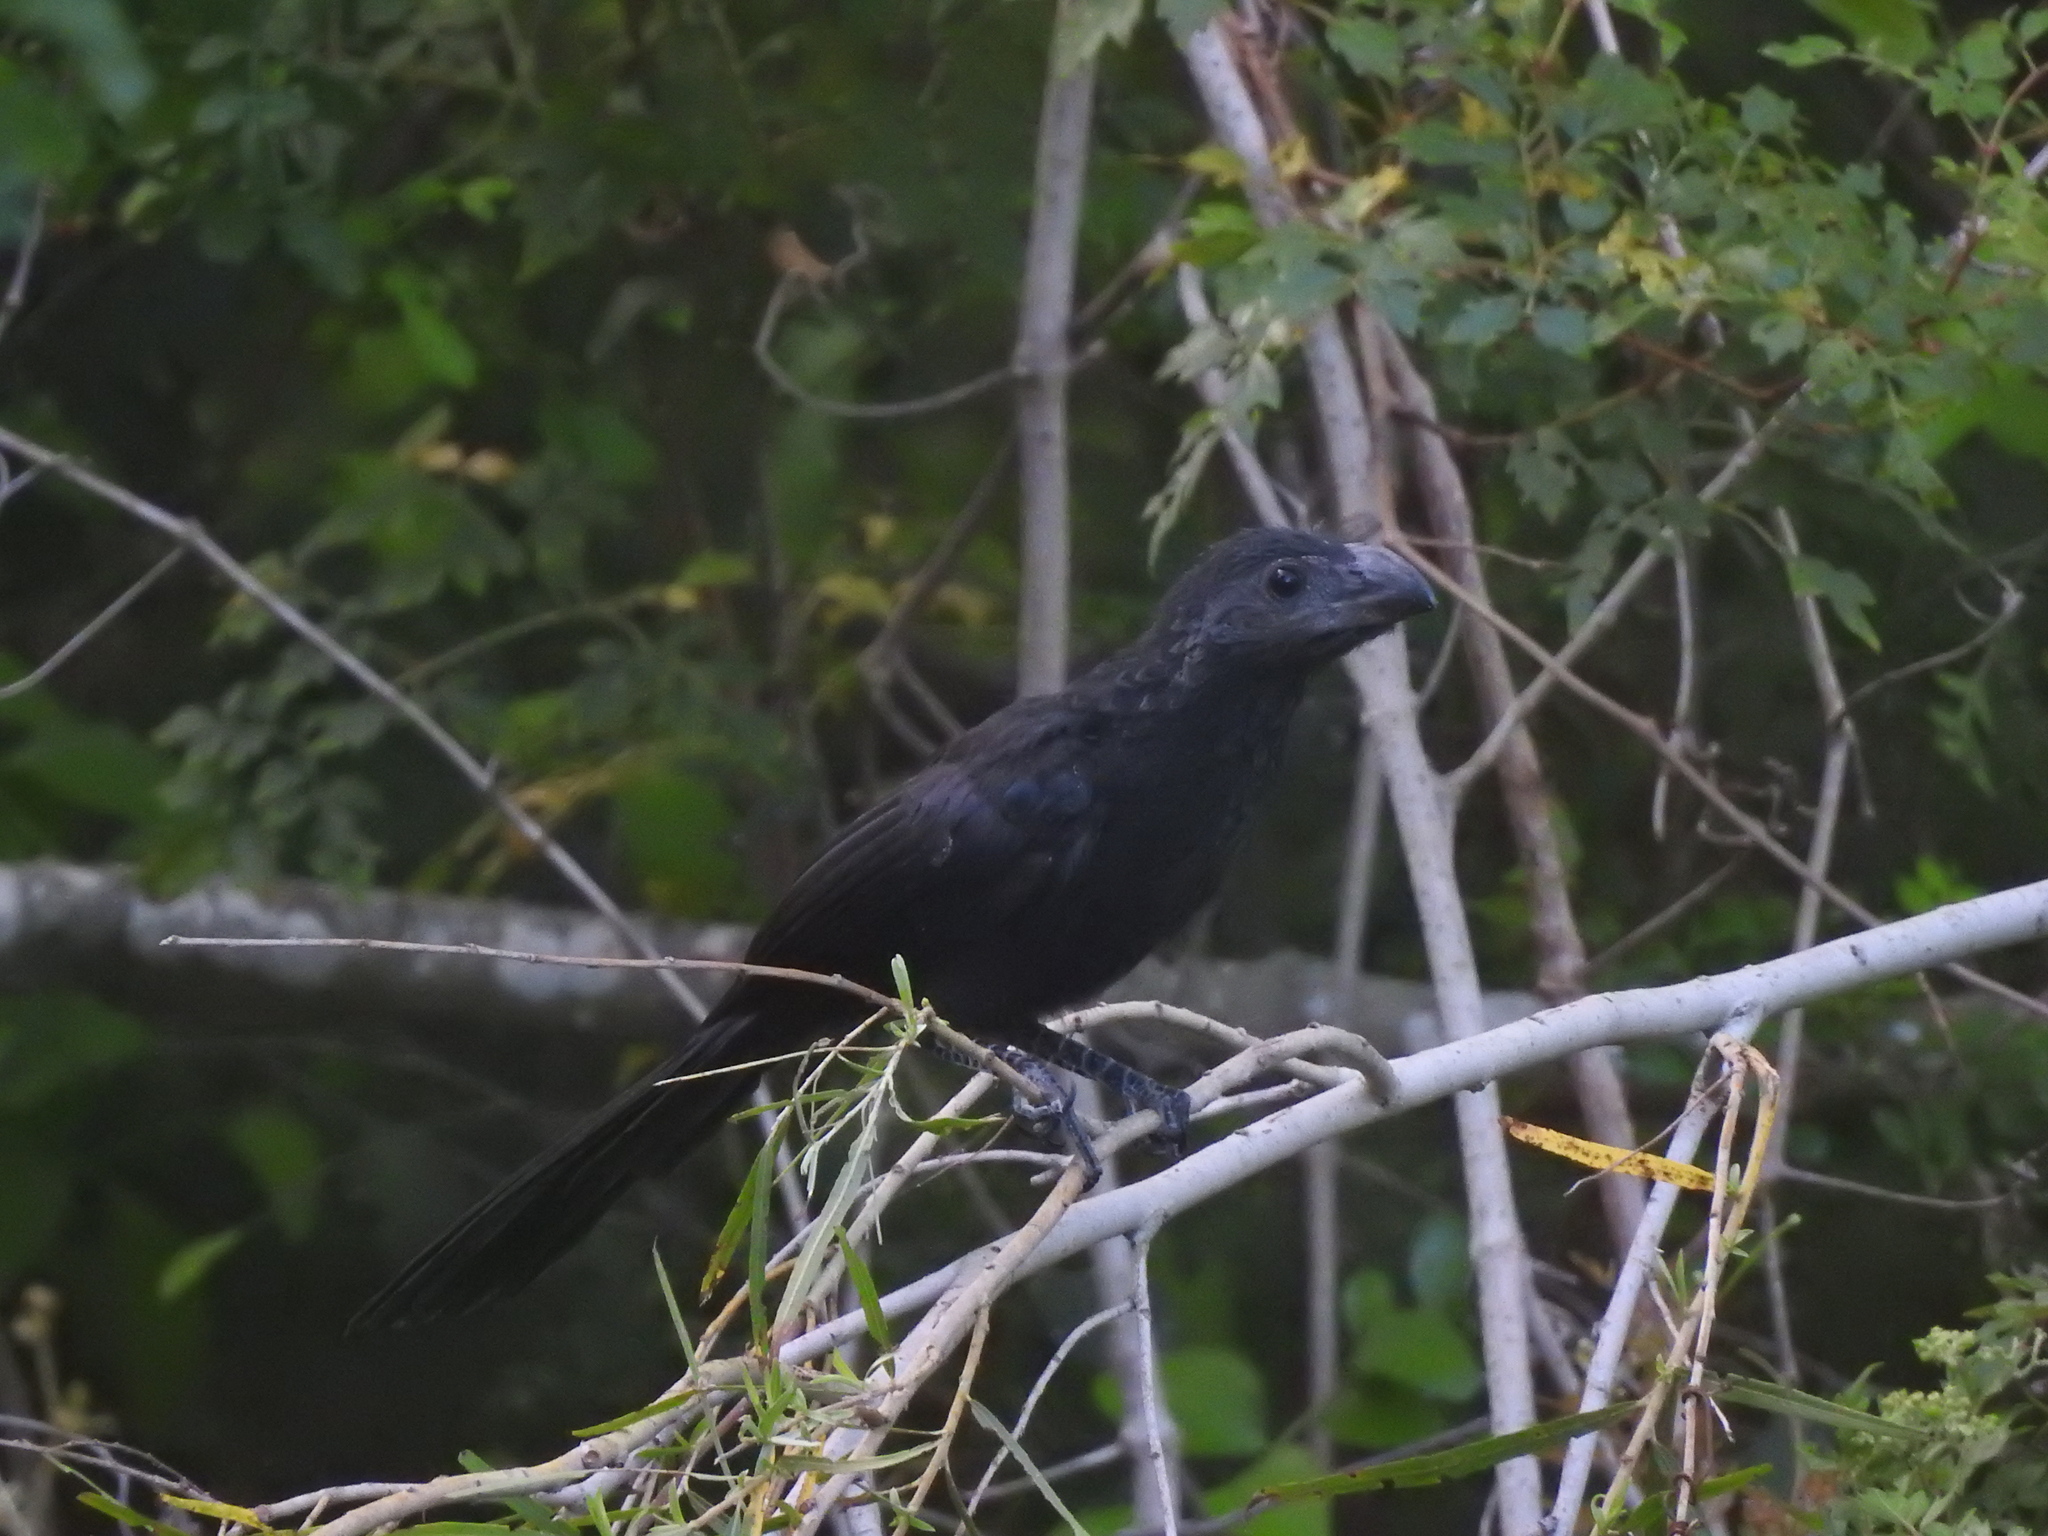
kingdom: Animalia
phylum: Chordata
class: Aves
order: Cuculiformes
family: Cuculidae
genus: Crotophaga
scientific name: Crotophaga sulcirostris
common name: Groove-billed ani
